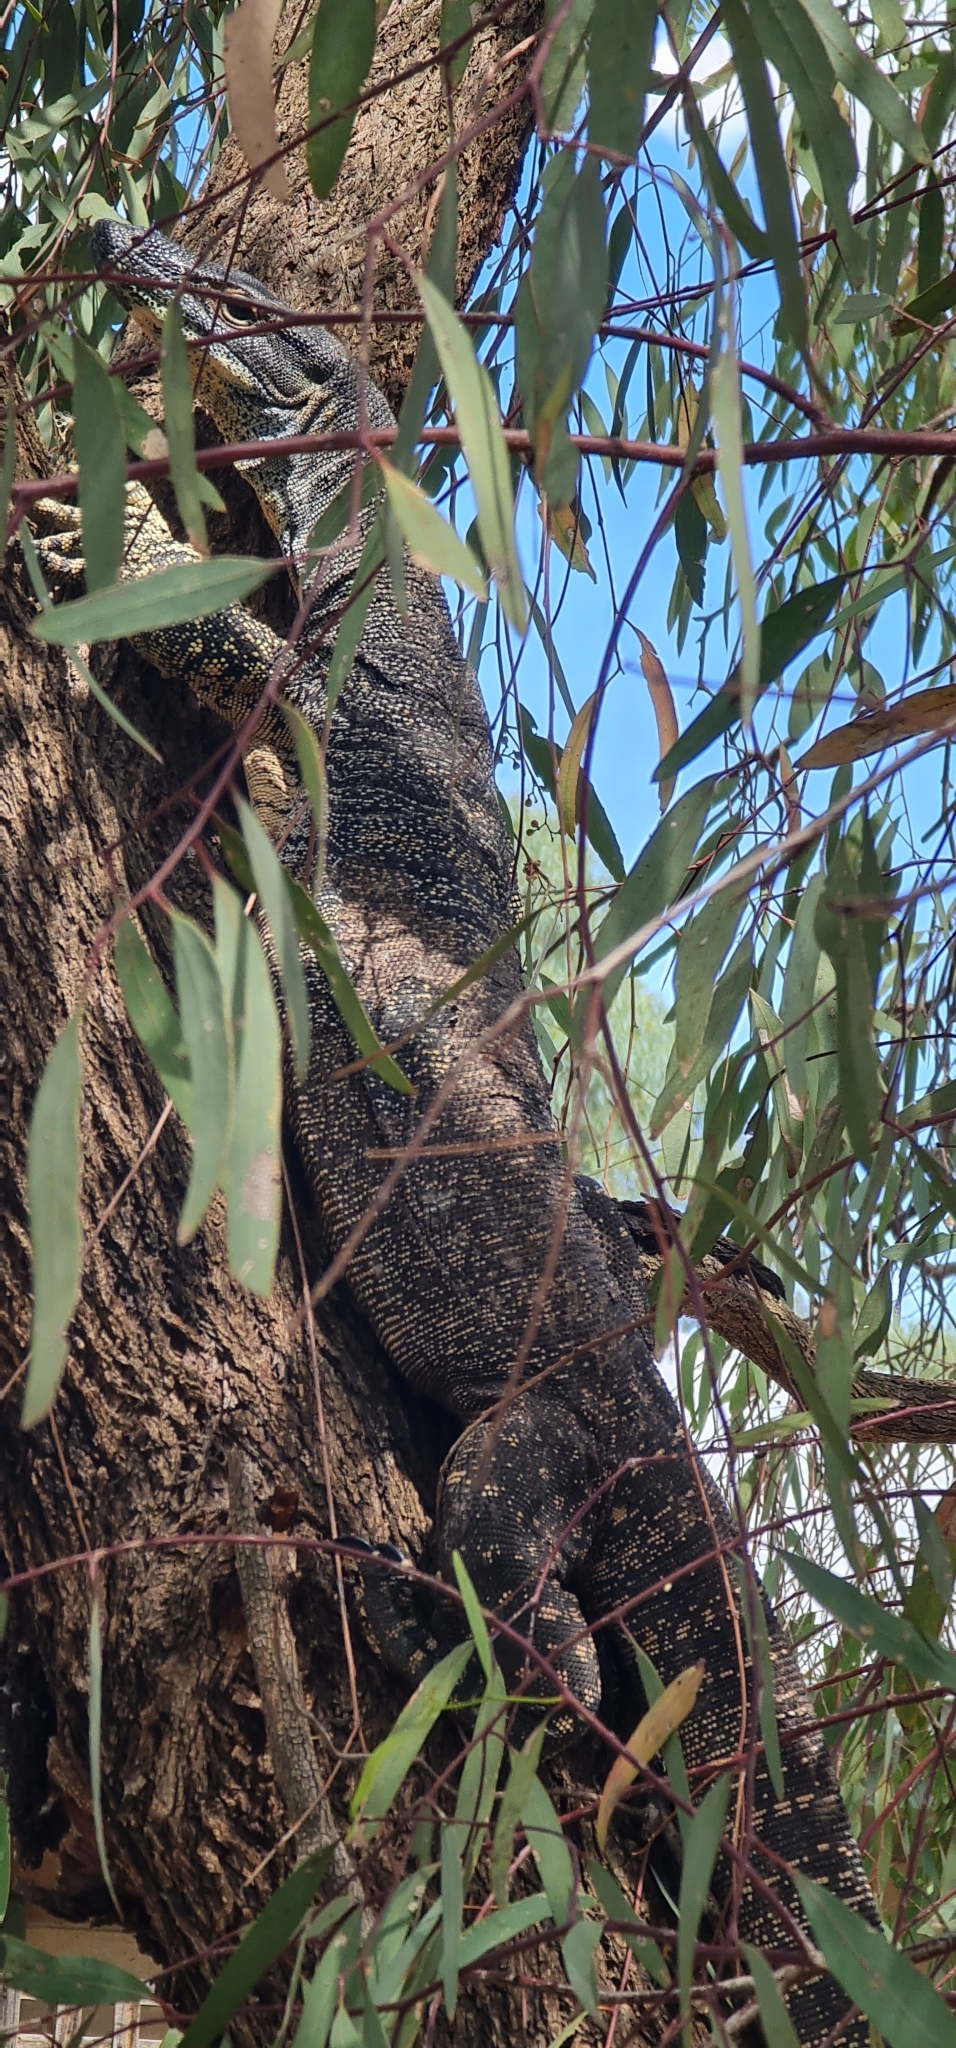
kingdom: Animalia
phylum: Chordata
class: Squamata
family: Varanidae
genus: Varanus
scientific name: Varanus varius
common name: Lace monitor
